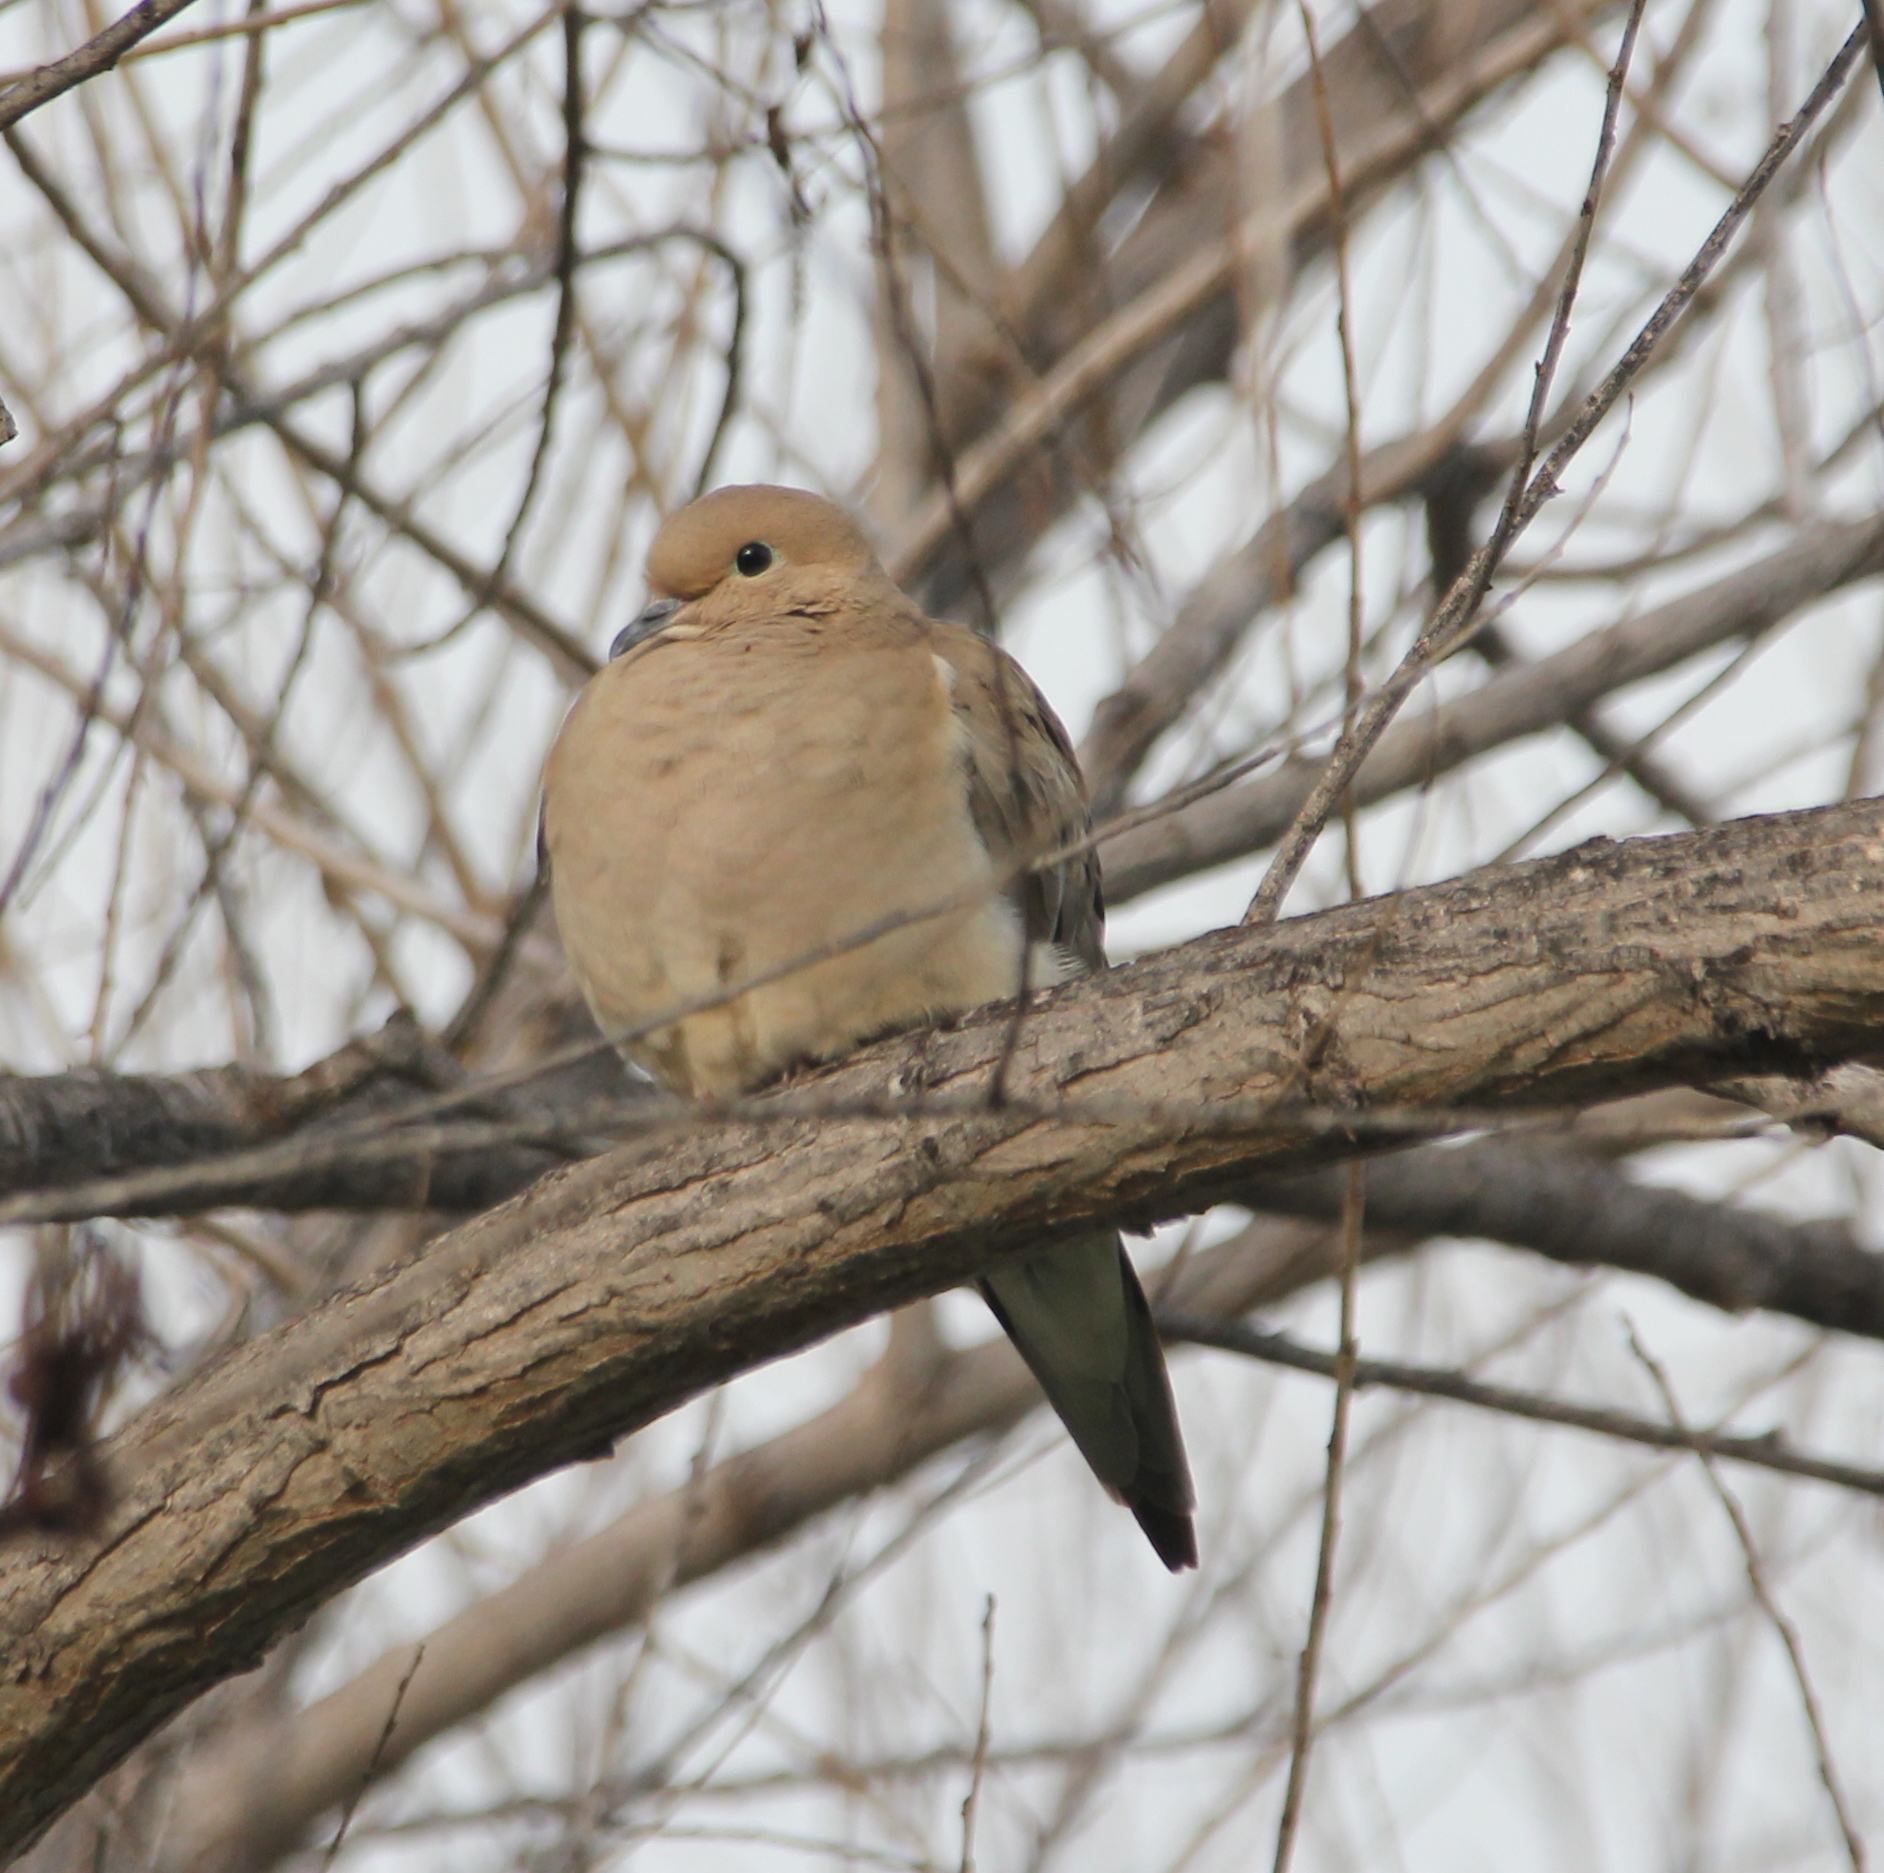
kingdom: Animalia
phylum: Chordata
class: Aves
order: Columbiformes
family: Columbidae
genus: Zenaida
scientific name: Zenaida macroura
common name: Mourning dove
